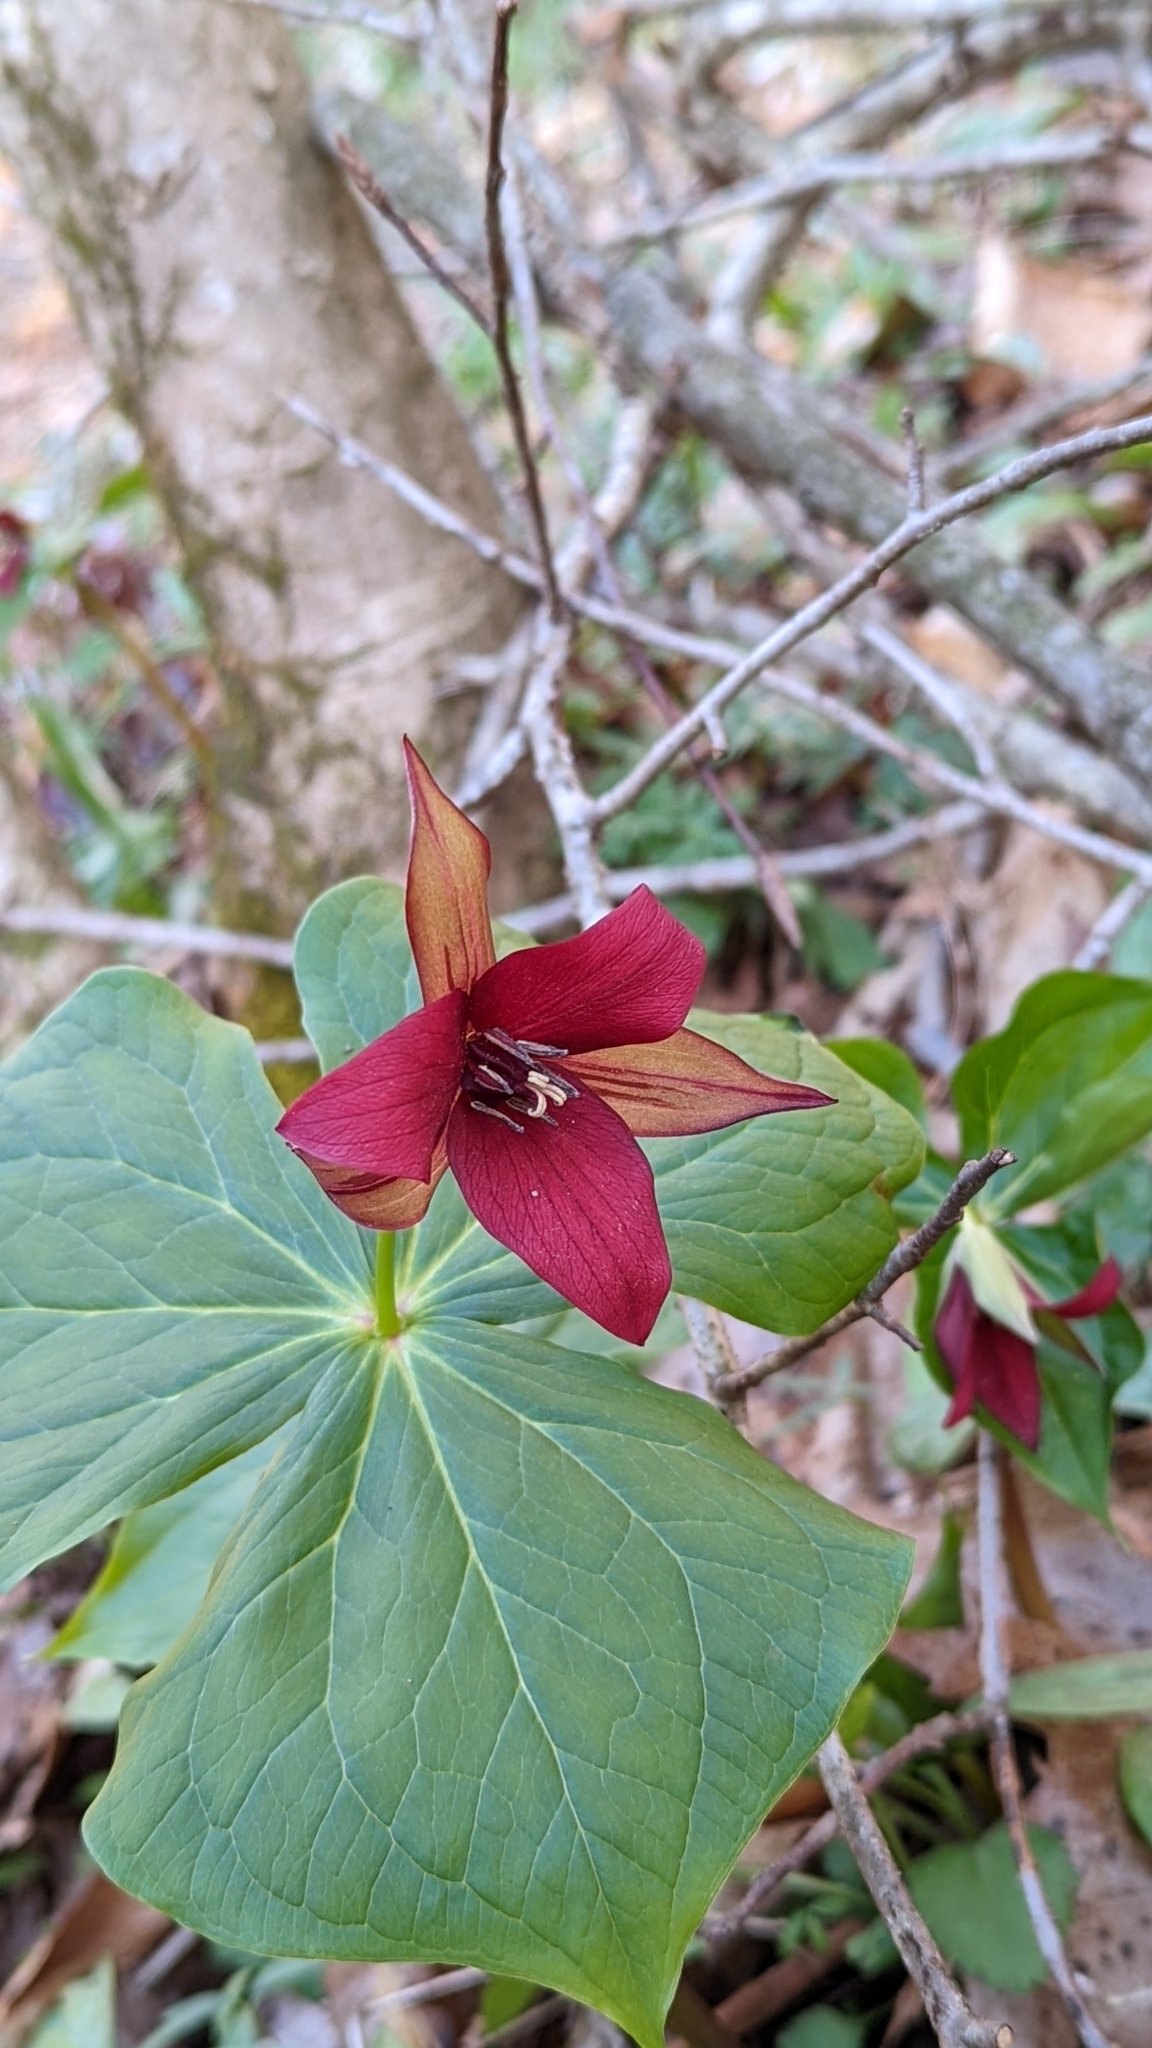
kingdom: Plantae
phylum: Tracheophyta
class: Liliopsida
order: Liliales
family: Melanthiaceae
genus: Trillium
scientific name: Trillium erectum
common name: Purple trillium
